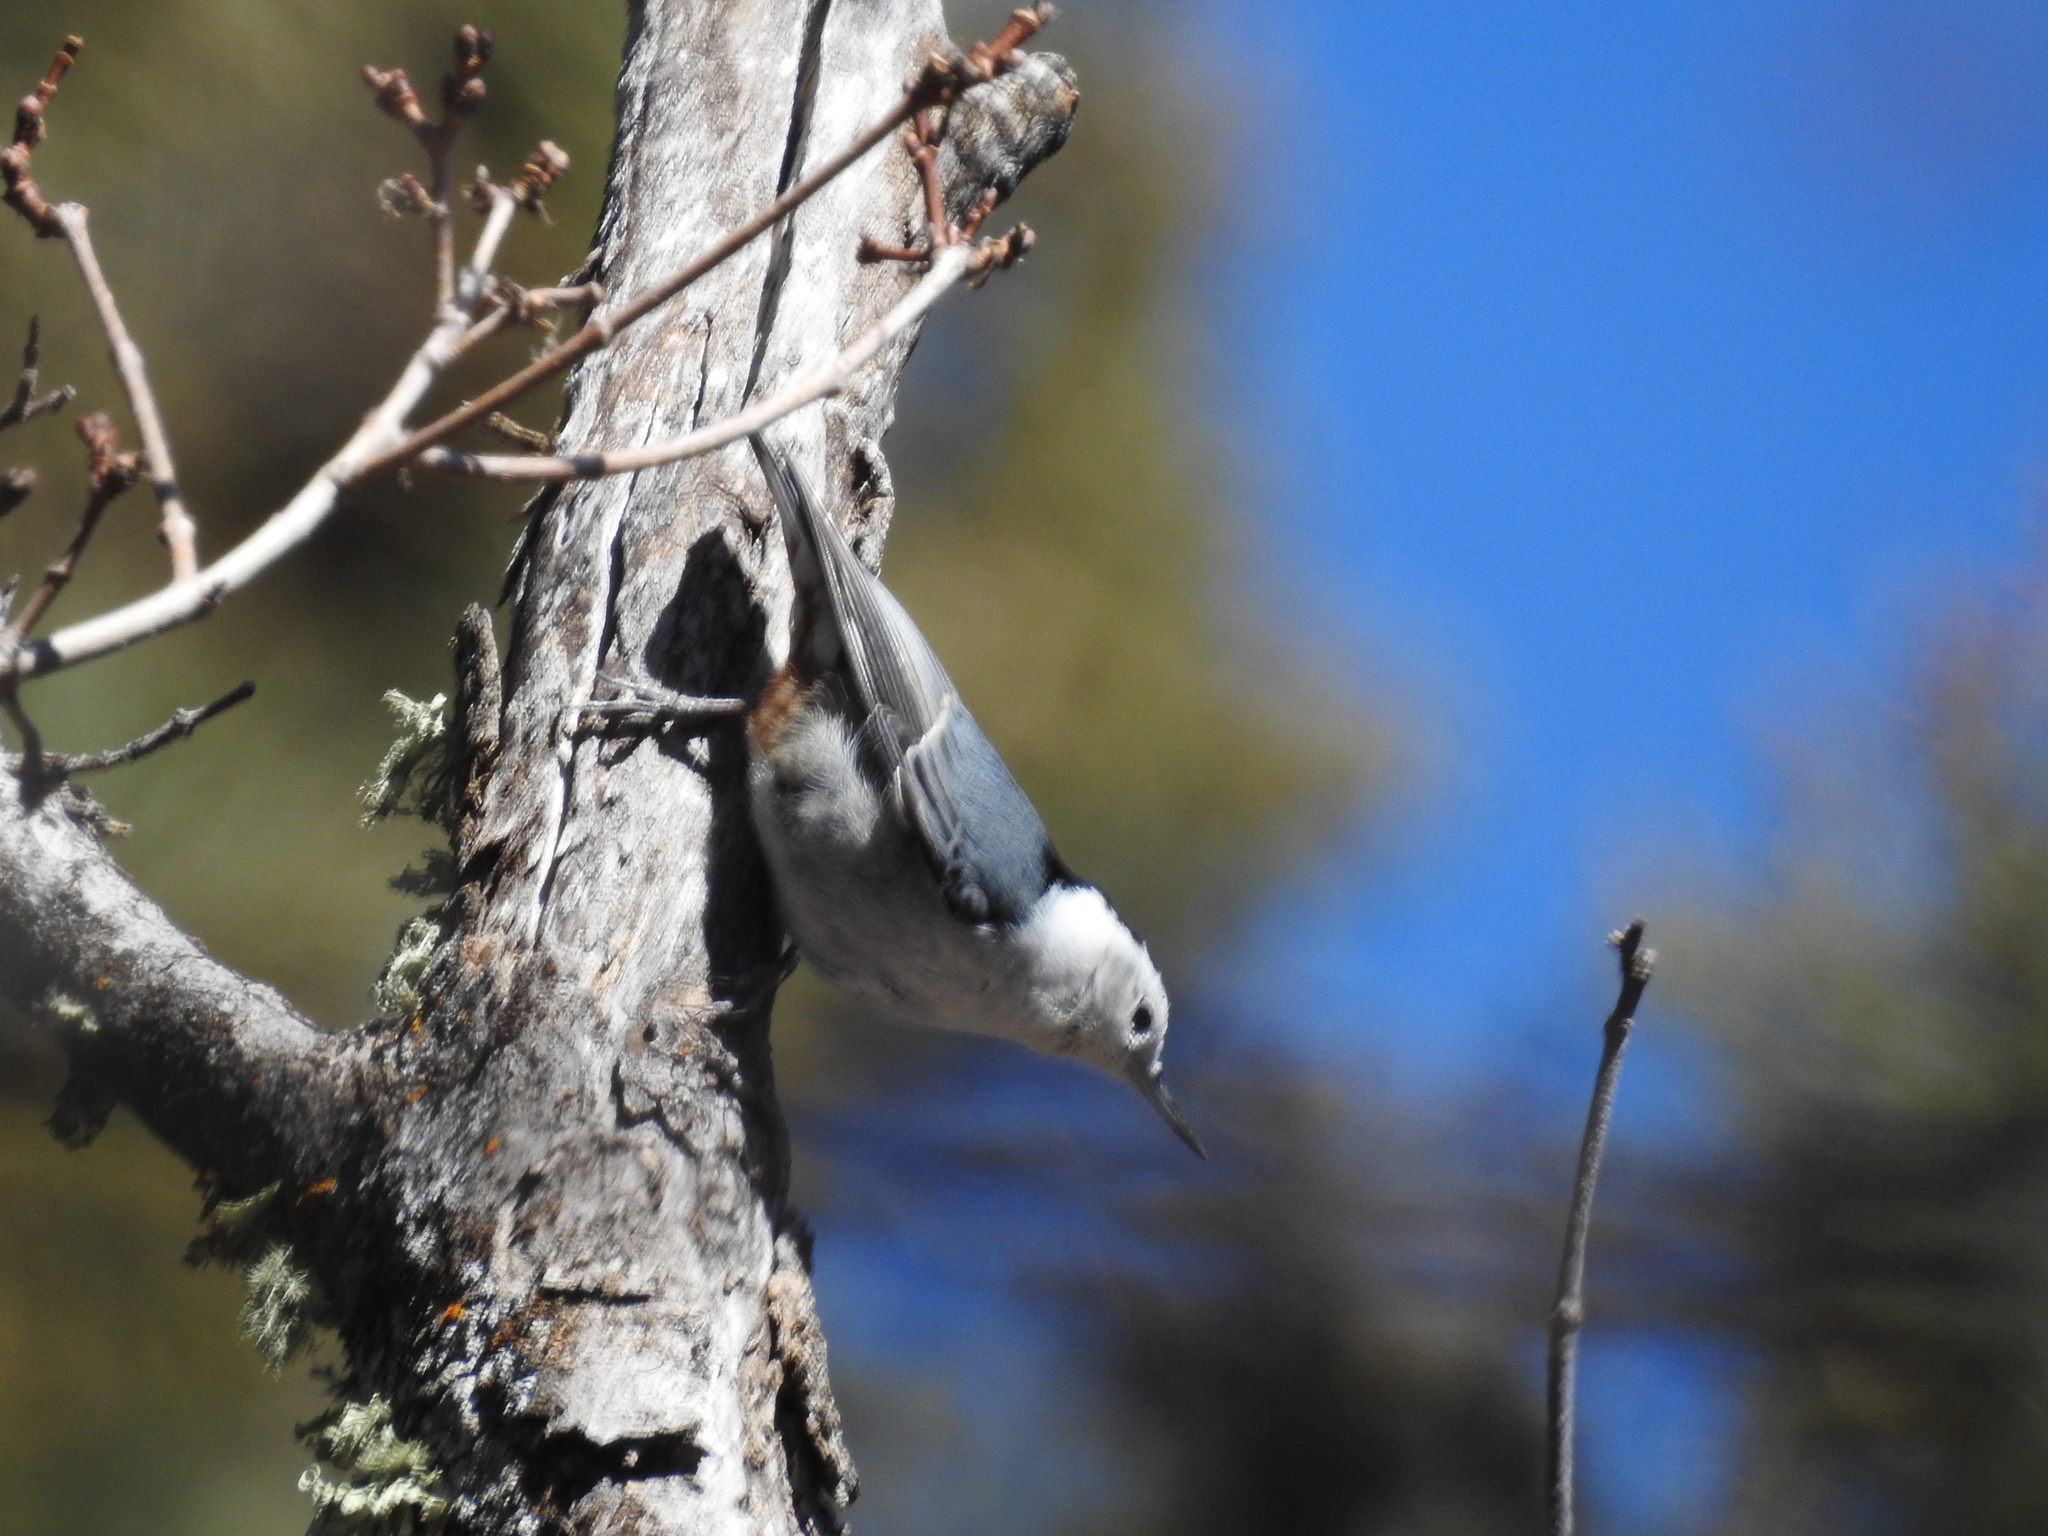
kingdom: Animalia
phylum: Chordata
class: Aves
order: Passeriformes
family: Sittidae
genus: Sitta
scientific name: Sitta carolinensis
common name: White-breasted nuthatch
